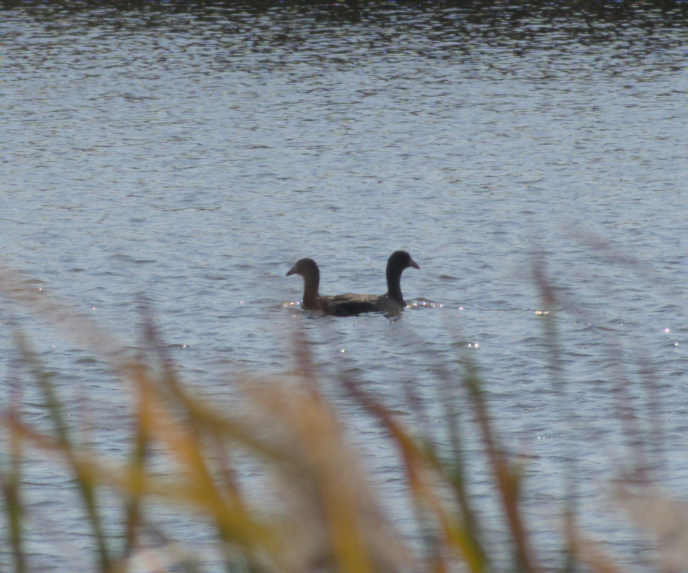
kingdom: Animalia
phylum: Chordata
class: Aves
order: Gruiformes
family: Rallidae
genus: Fulica
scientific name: Fulica americana
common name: American coot
